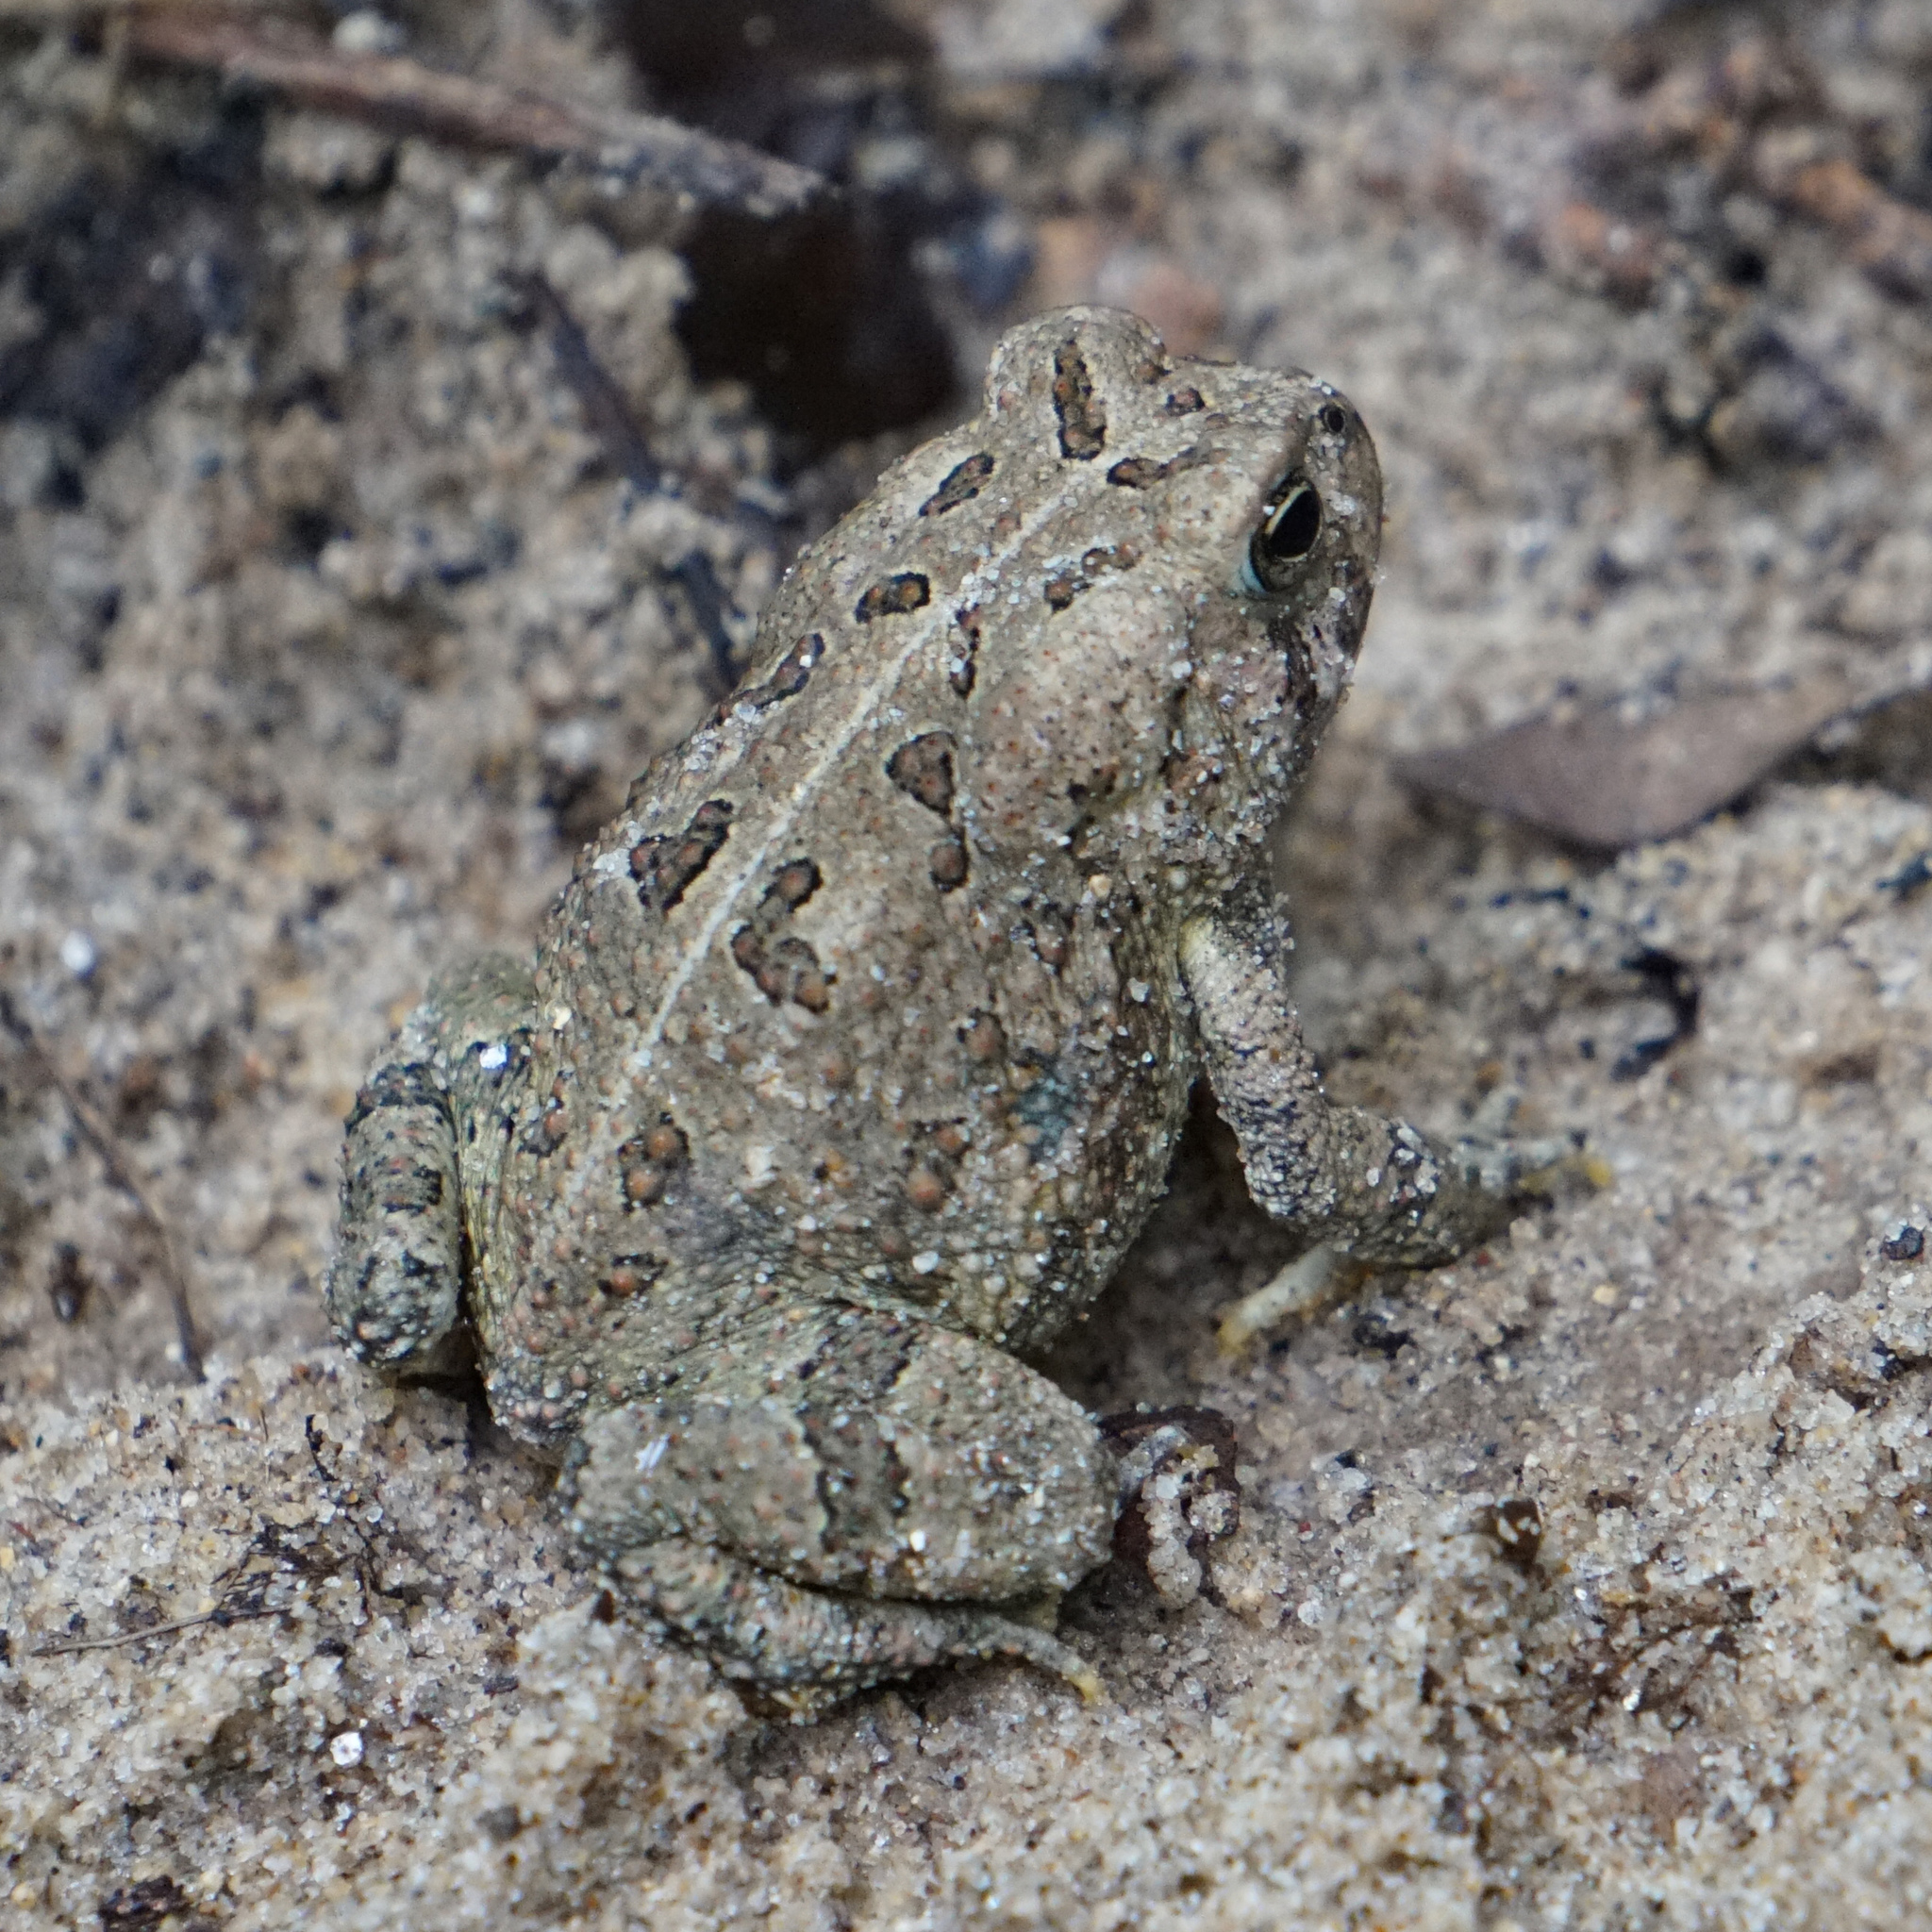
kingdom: Animalia
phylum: Chordata
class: Amphibia
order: Anura
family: Bufonidae
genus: Anaxyrus
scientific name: Anaxyrus fowleri
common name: Fowler's toad
